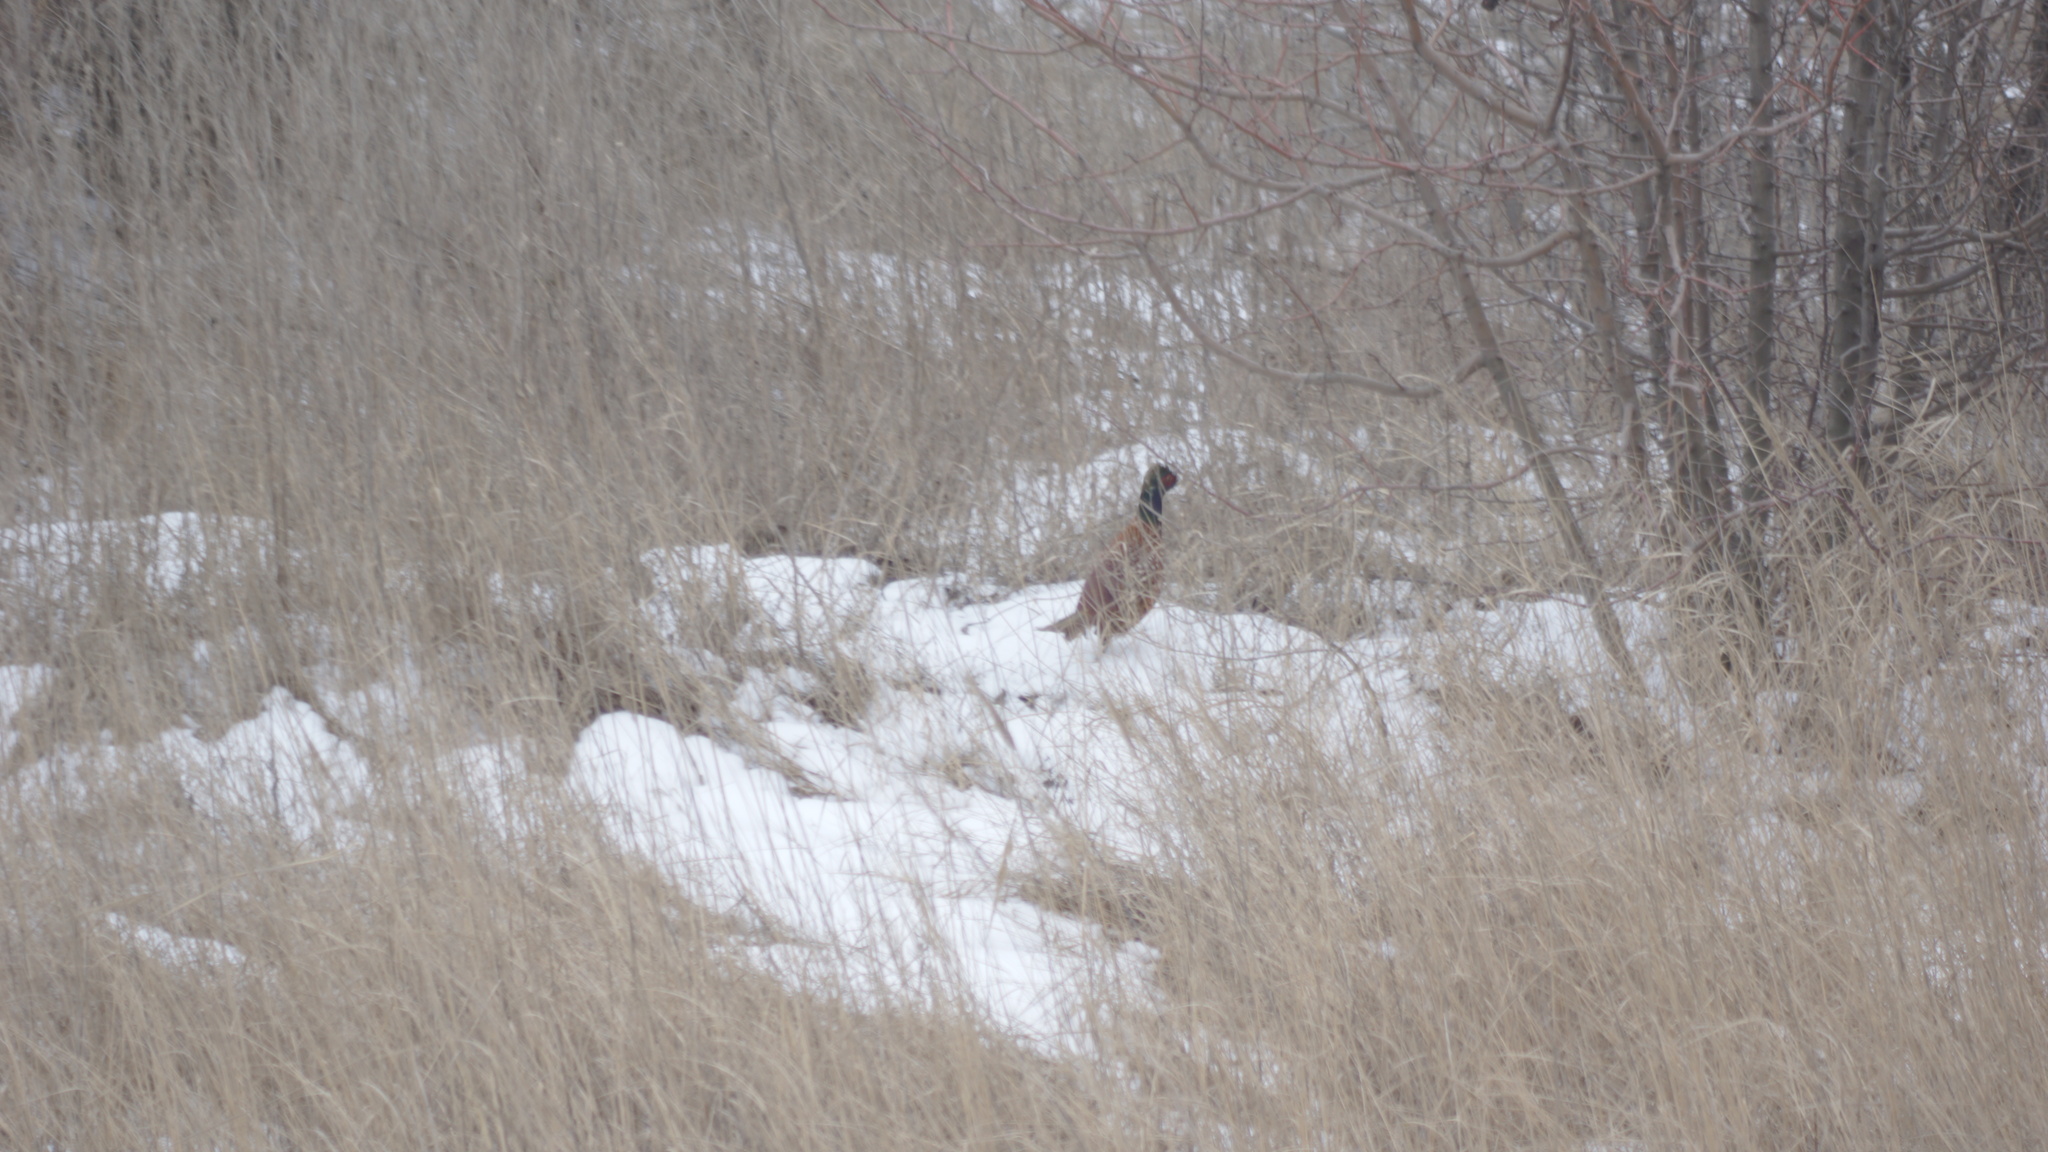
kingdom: Animalia
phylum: Chordata
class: Aves
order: Galliformes
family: Phasianidae
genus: Phasianus
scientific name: Phasianus colchicus
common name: Common pheasant
